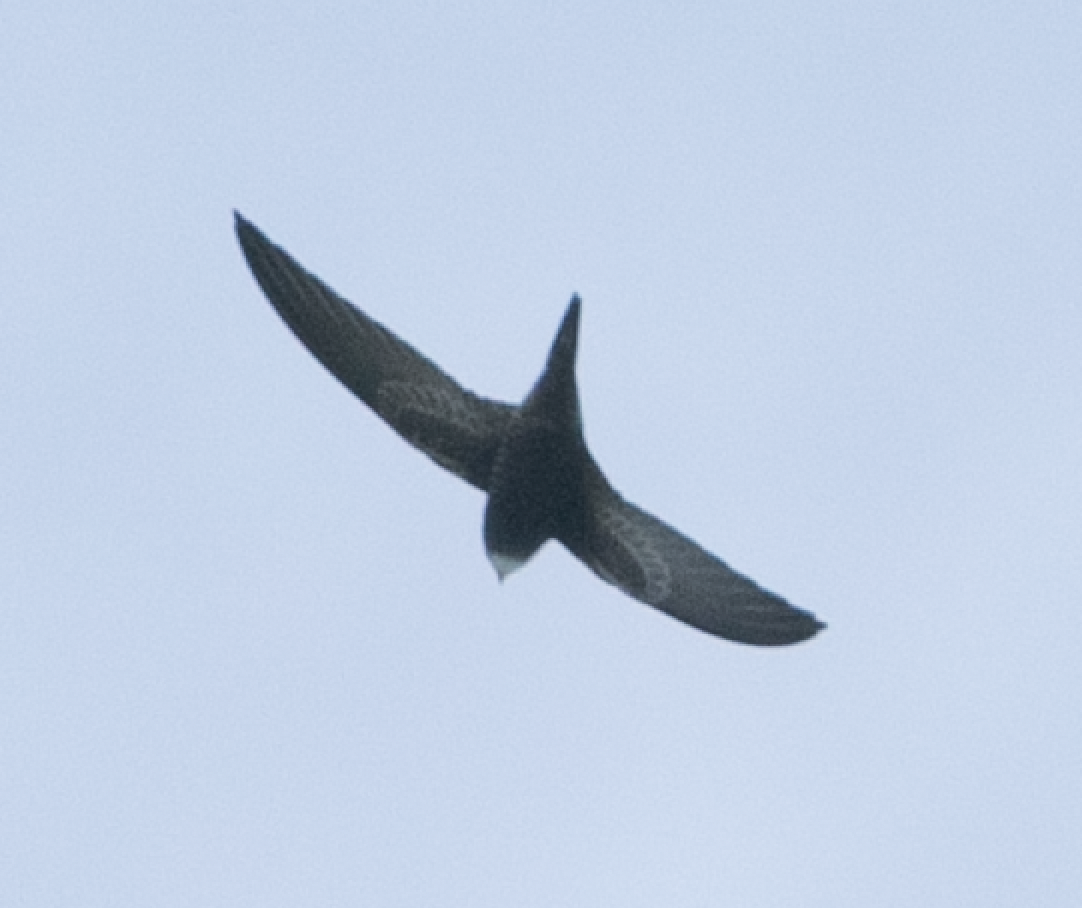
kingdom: Animalia
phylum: Chordata
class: Aves
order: Apodiformes
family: Apodidae
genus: Apus
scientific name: Apus apus
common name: Common swift
